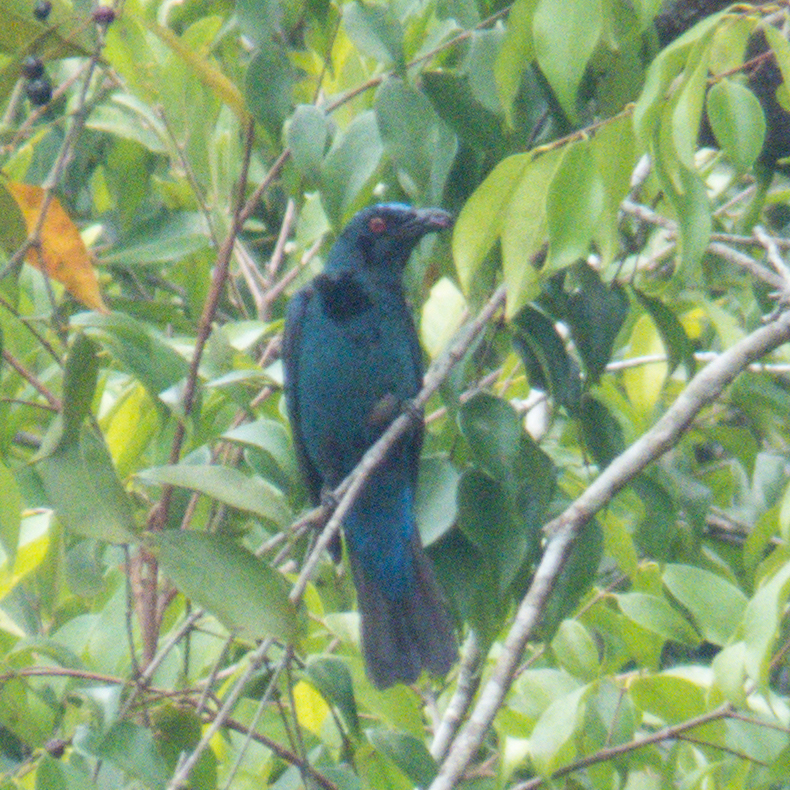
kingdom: Animalia
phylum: Chordata
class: Aves
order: Passeriformes
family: Irenidae
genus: Irena
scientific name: Irena puella
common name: Asian fairy-bluebird
